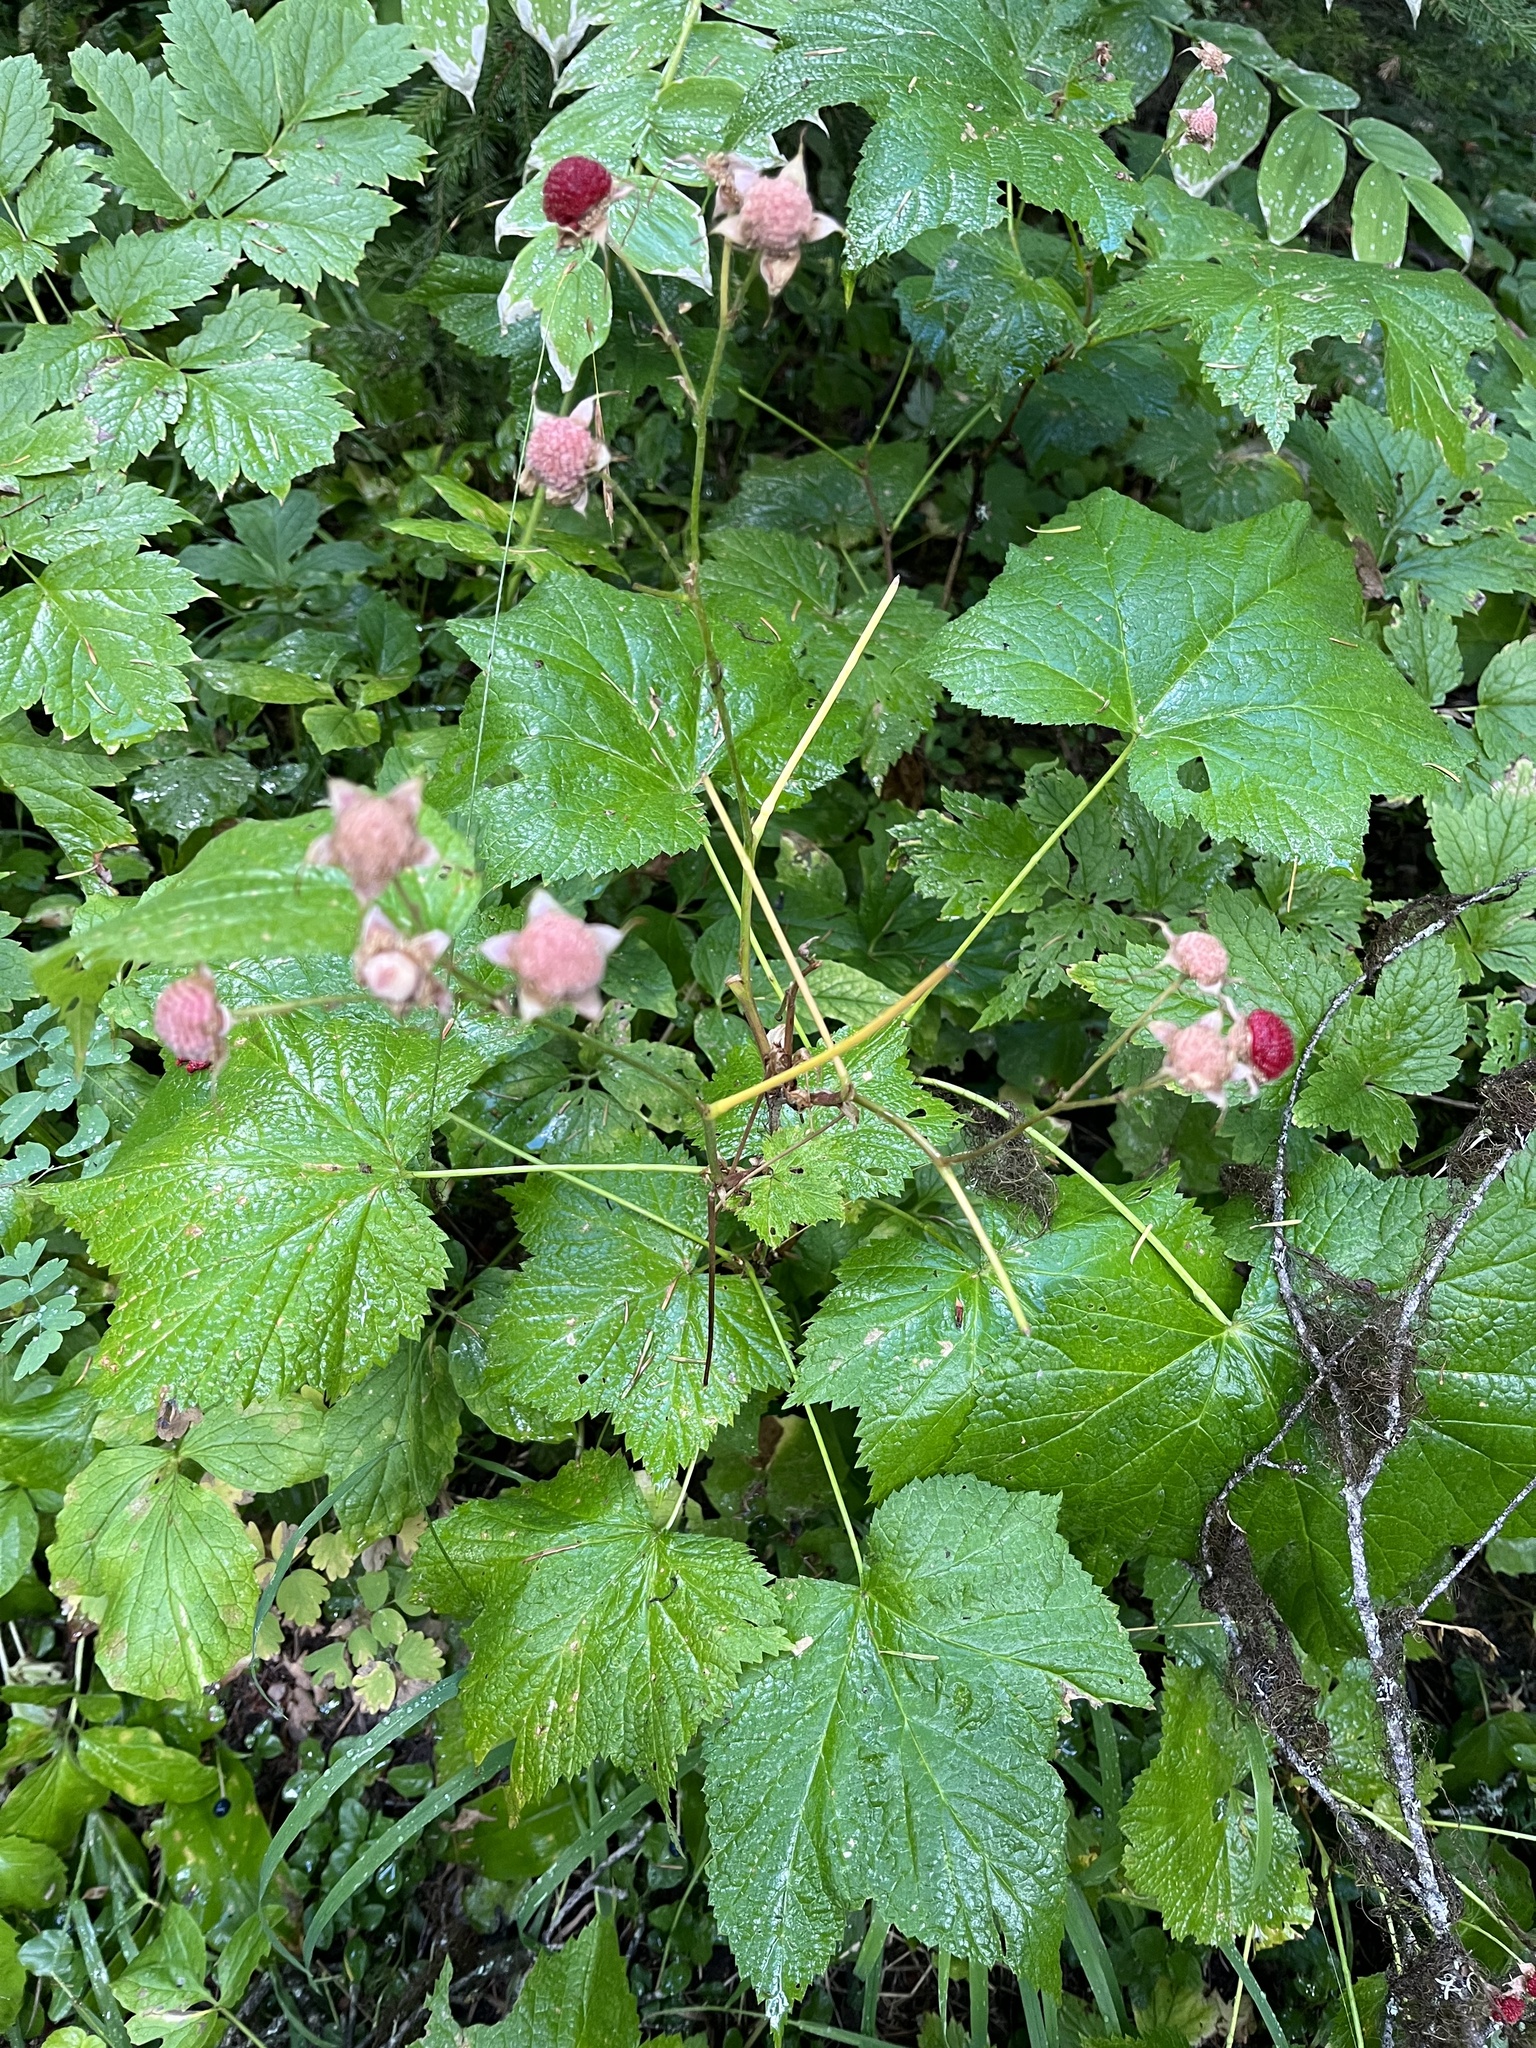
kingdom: Plantae
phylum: Tracheophyta
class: Magnoliopsida
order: Rosales
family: Rosaceae
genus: Rubus
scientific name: Rubus parviflorus
